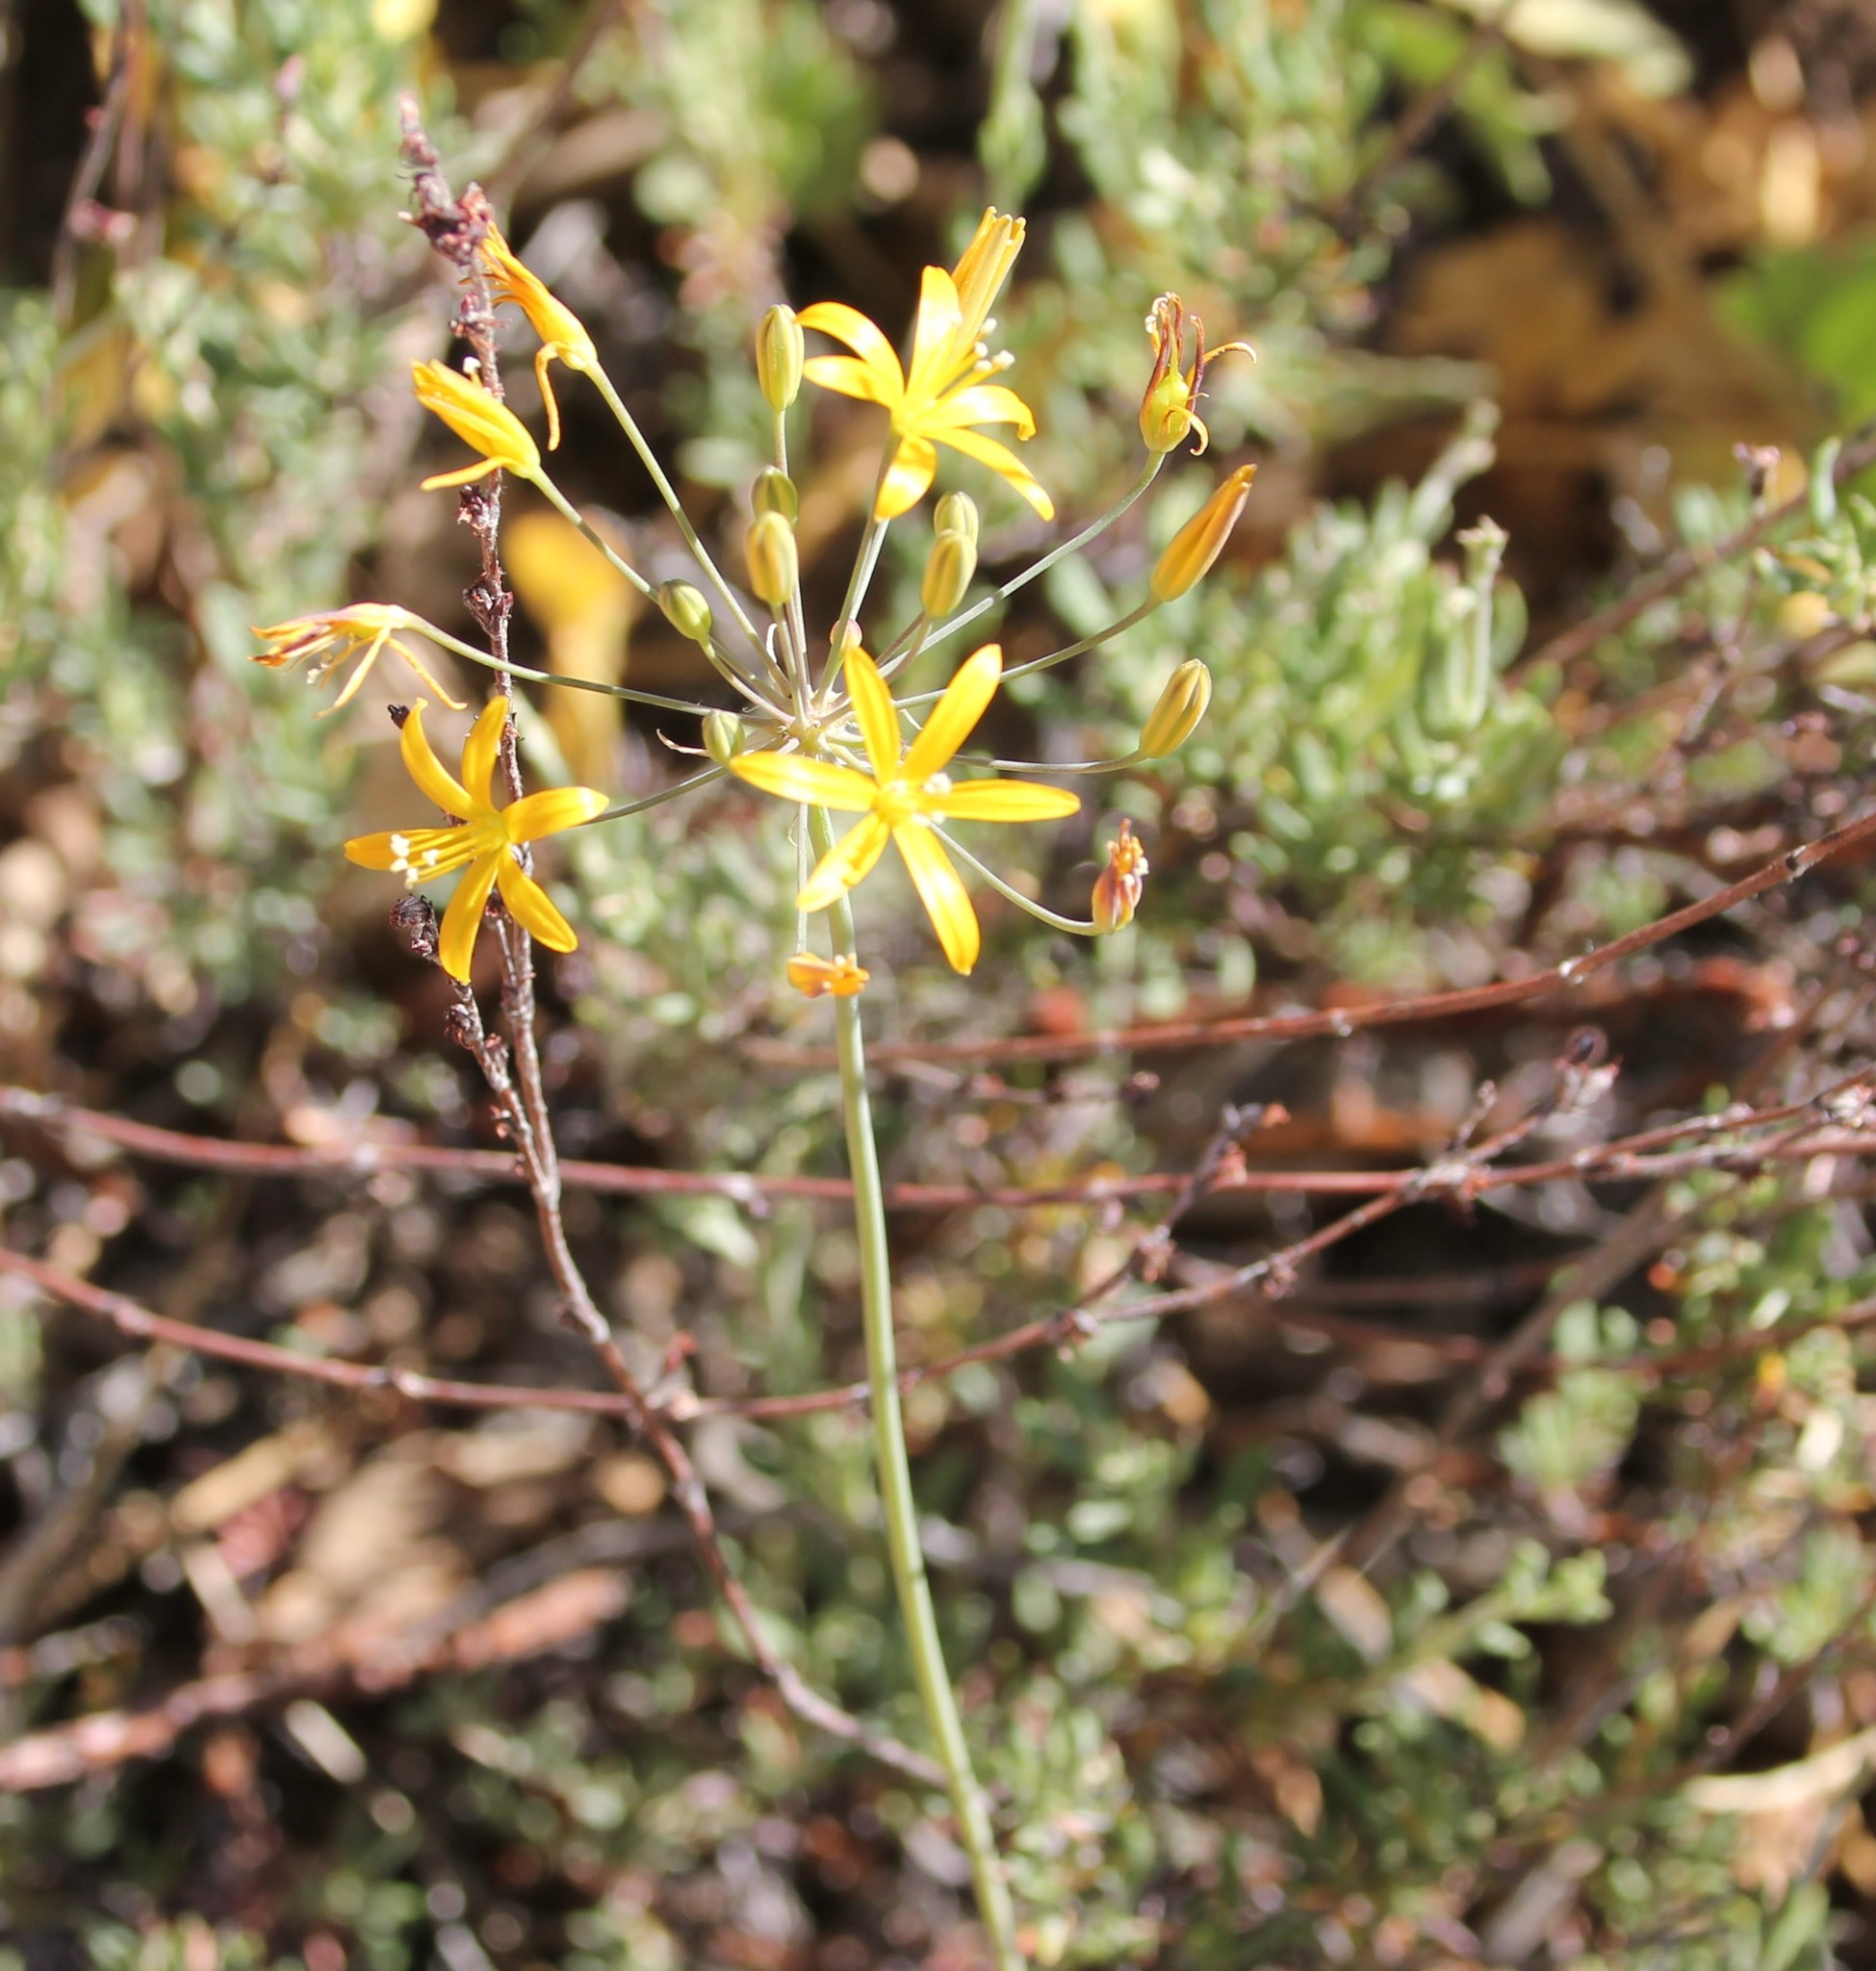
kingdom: Plantae
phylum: Tracheophyta
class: Liliopsida
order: Asparagales
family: Asparagaceae
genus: Bloomeria
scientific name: Bloomeria crocea
